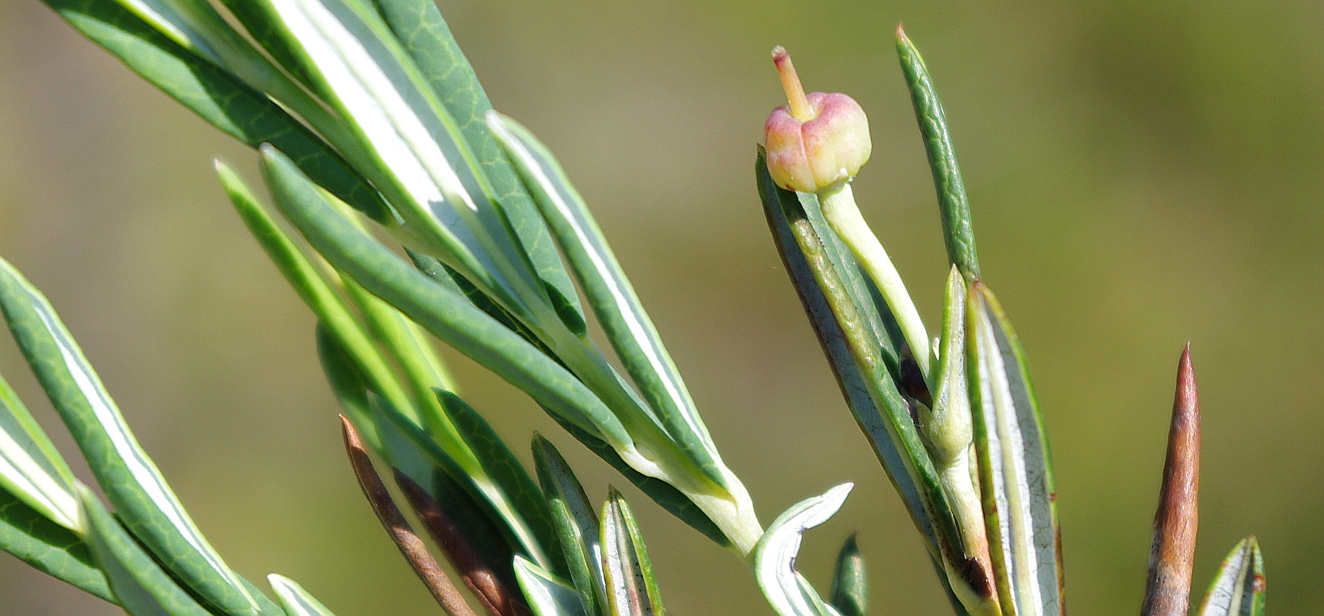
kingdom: Plantae
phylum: Tracheophyta
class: Magnoliopsida
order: Ericales
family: Ericaceae
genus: Andromeda
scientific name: Andromeda polifolia
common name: Bog-rosemary
